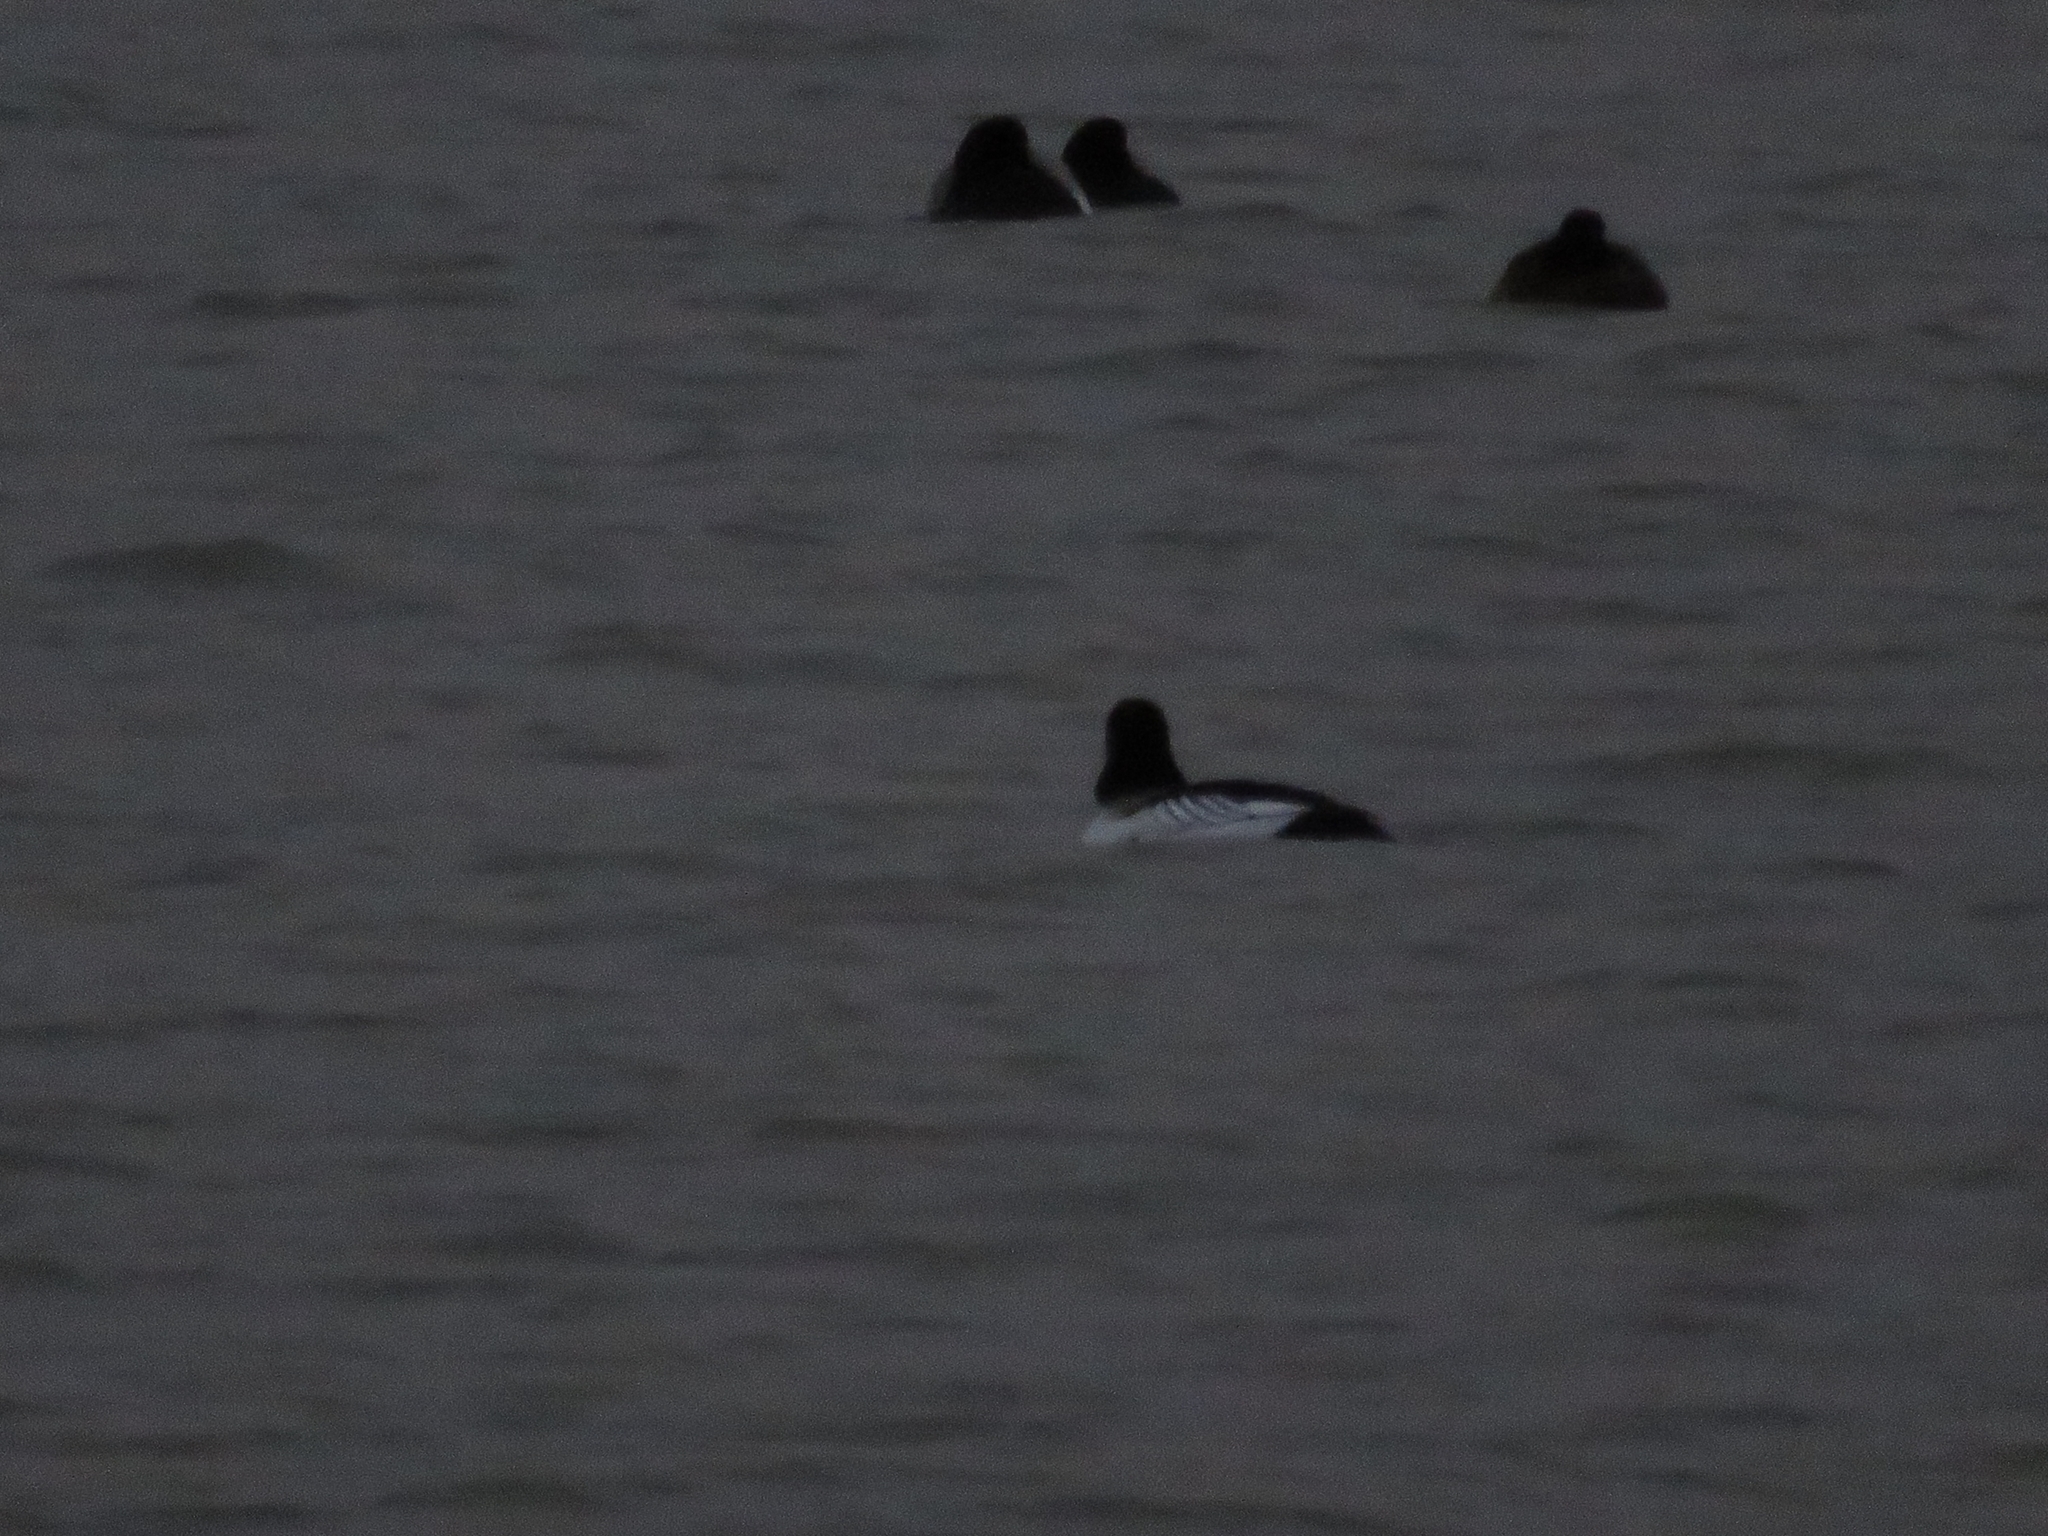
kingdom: Animalia
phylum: Chordata
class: Aves
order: Anseriformes
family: Anatidae
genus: Bucephala
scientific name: Bucephala clangula
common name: Common goldeneye
